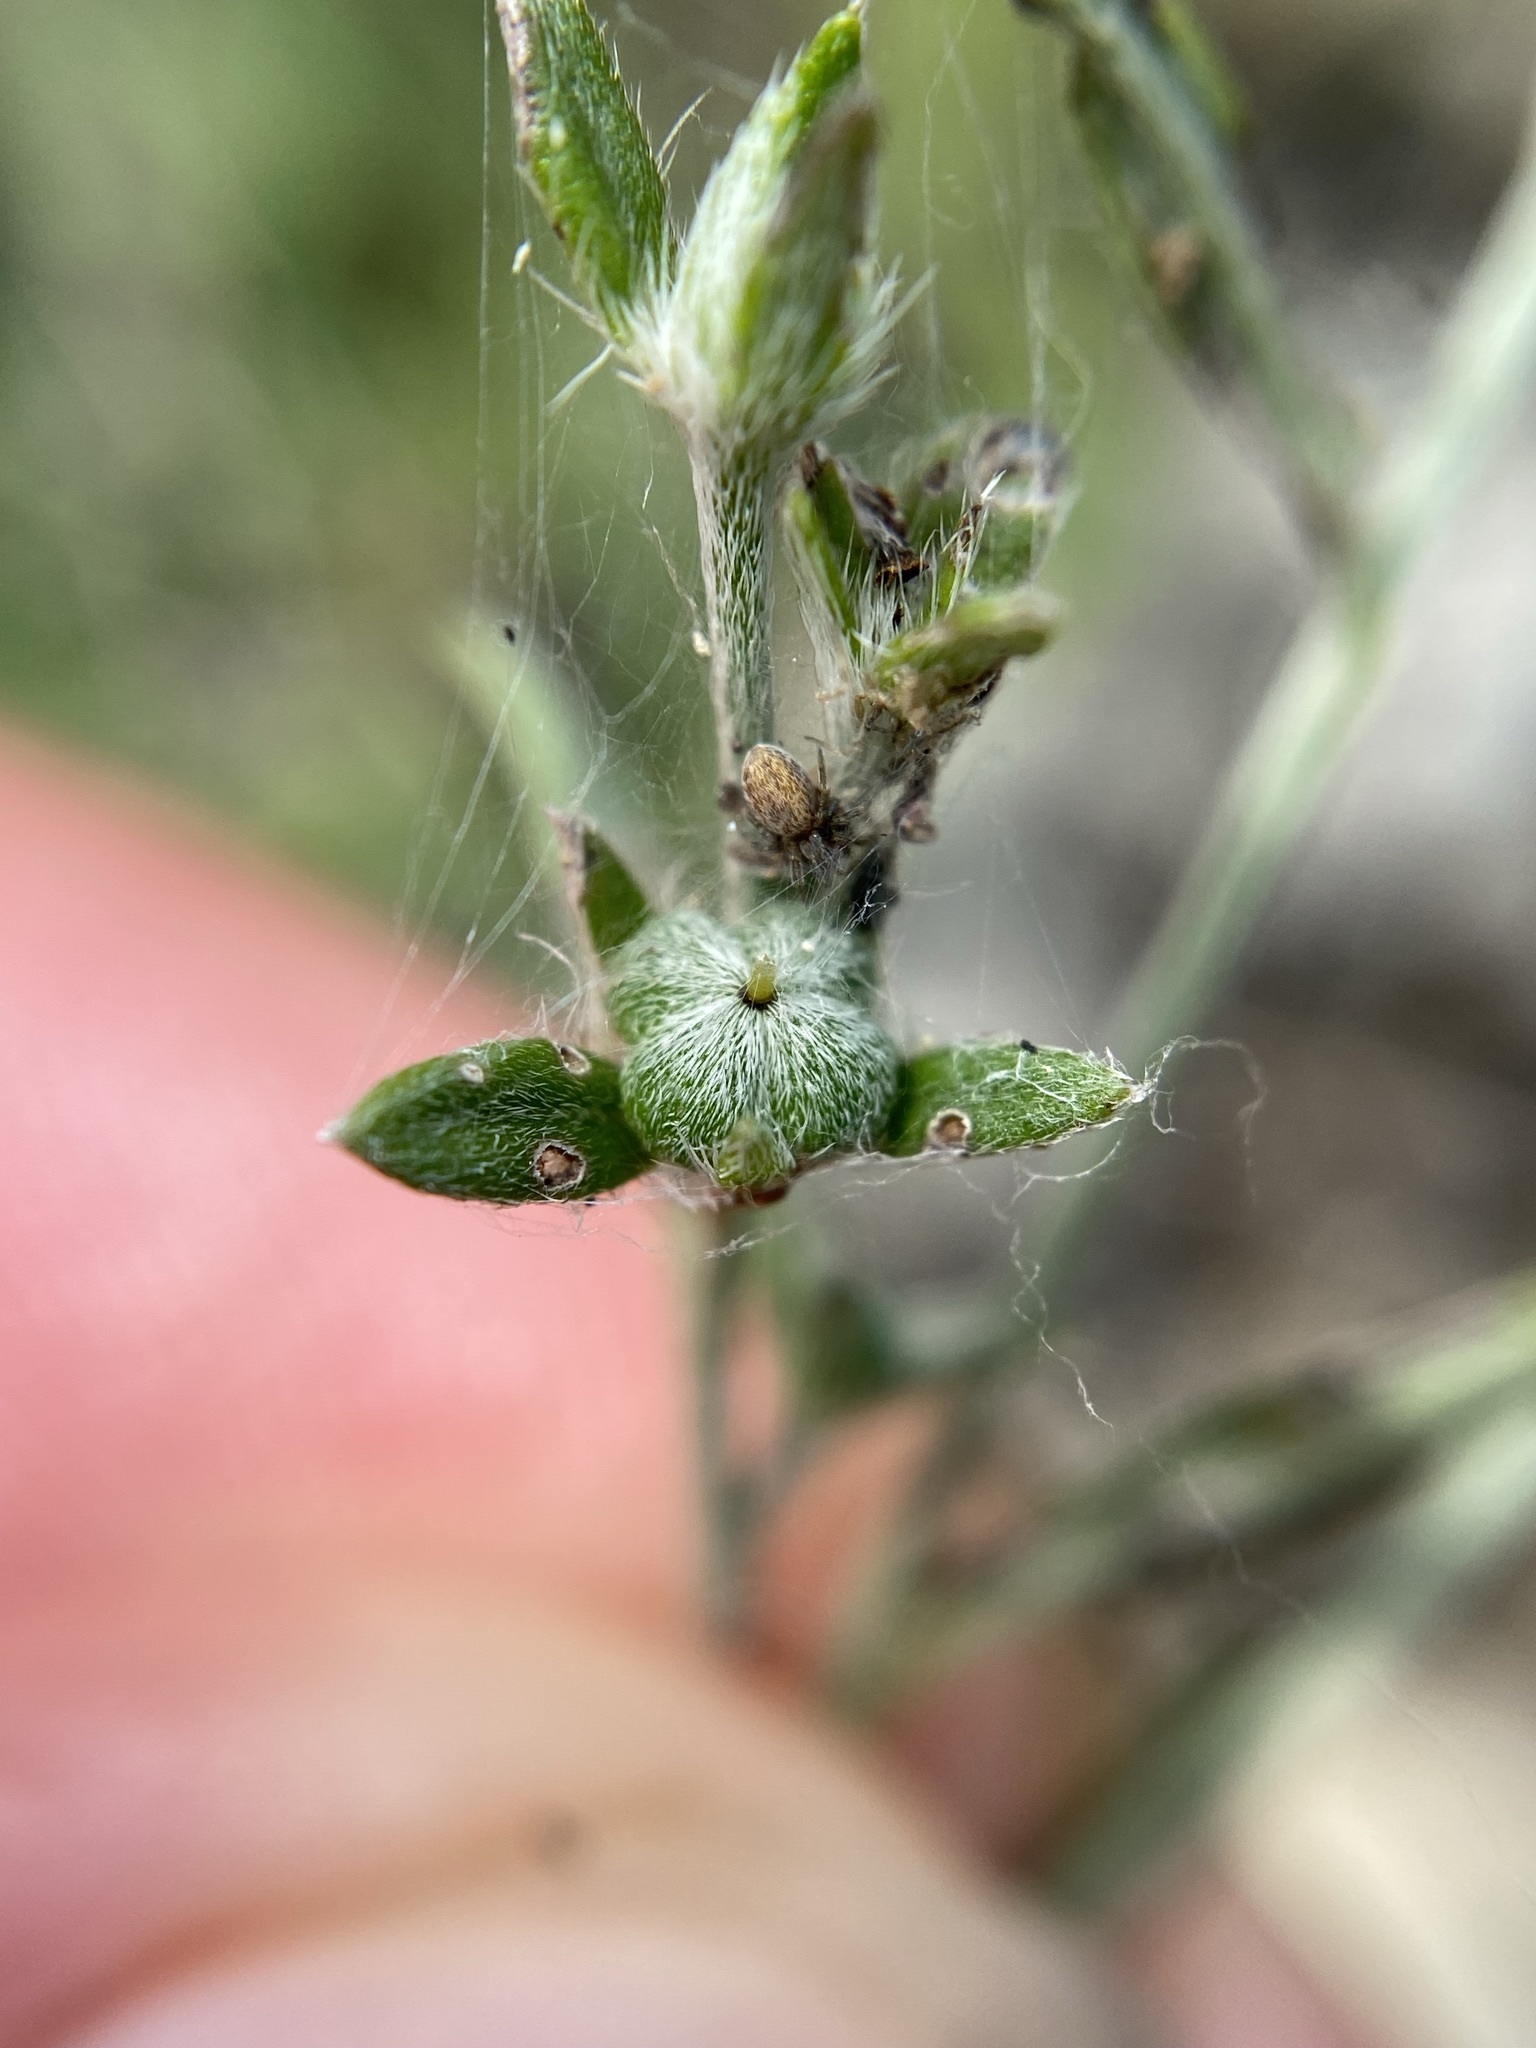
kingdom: Plantae
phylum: Tracheophyta
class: Magnoliopsida
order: Boraginales
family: Heliotropiaceae
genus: Euploca
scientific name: Euploca tenella
